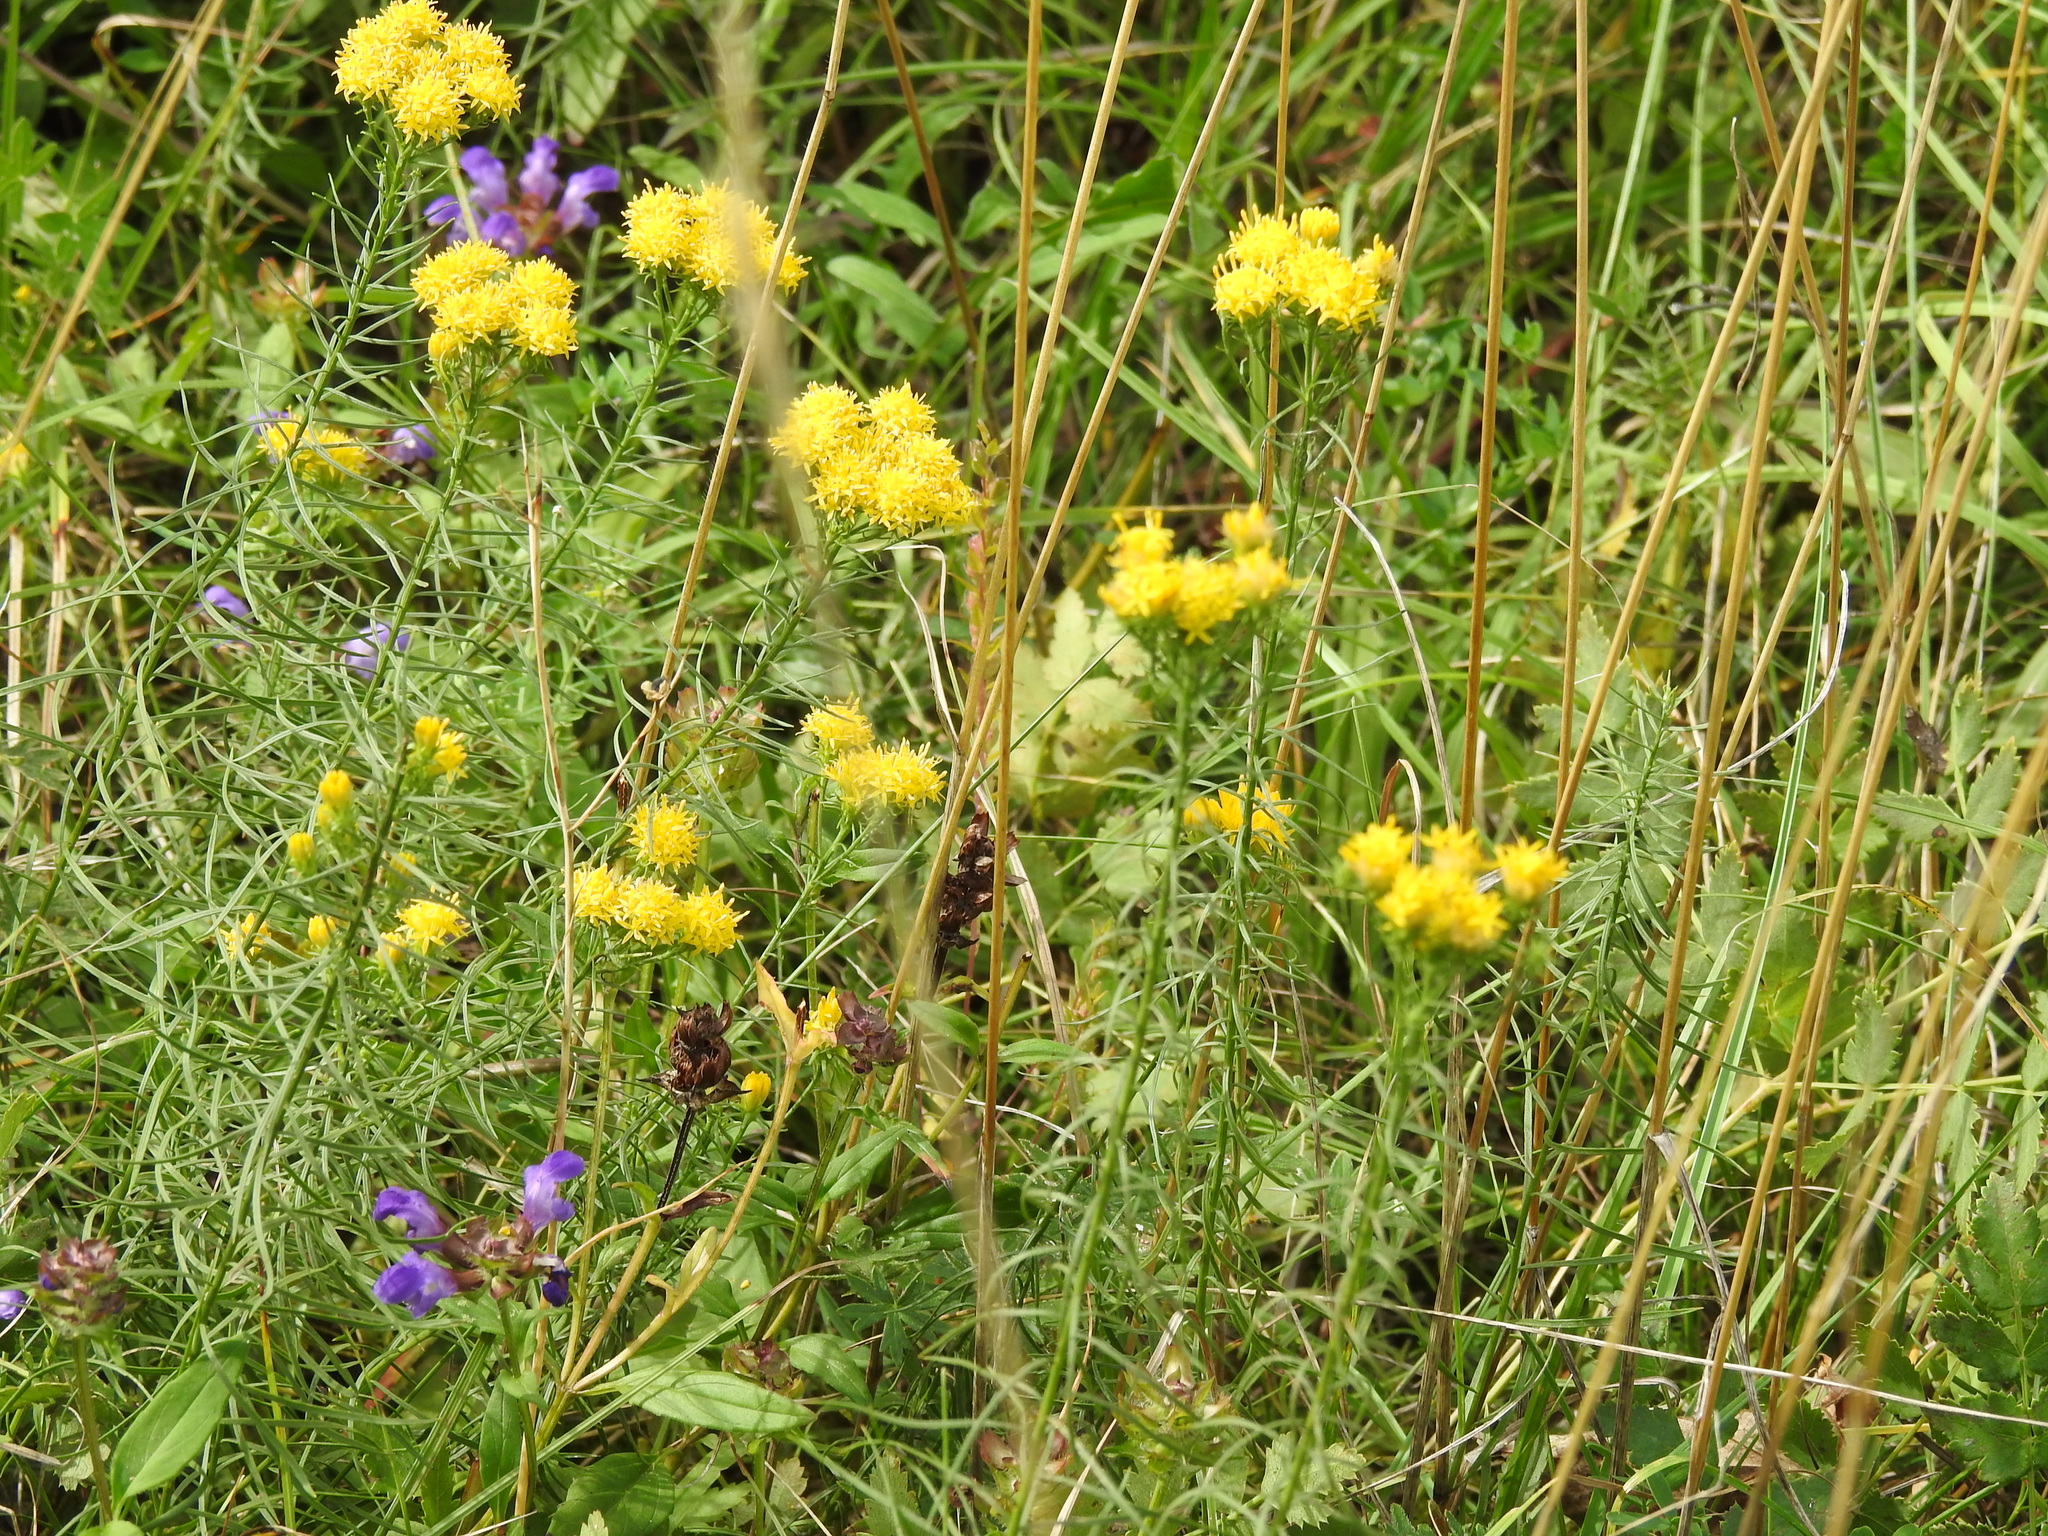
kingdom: Plantae
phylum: Tracheophyta
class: Magnoliopsida
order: Asterales
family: Asteraceae
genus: Galatella
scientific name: Galatella linosyris
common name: Goldilocks aster
